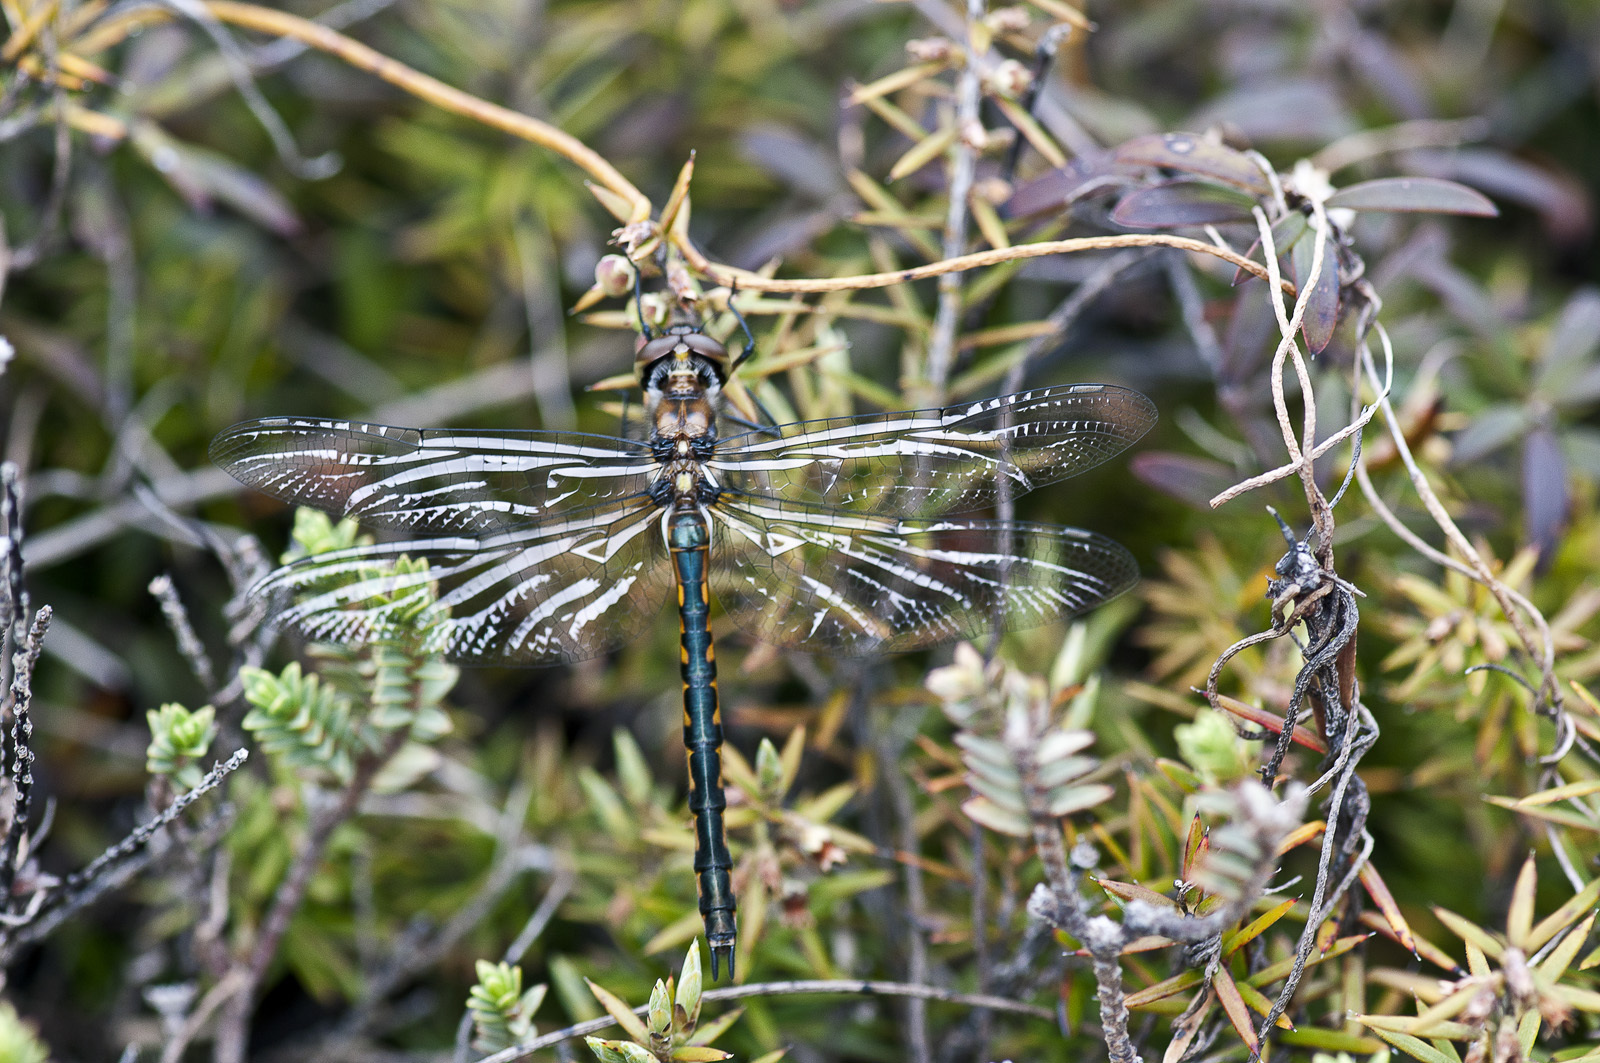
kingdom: Animalia
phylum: Arthropoda
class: Insecta
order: Odonata
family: Corduliidae
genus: Hemicordulia
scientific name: Hemicordulia australiae
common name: Sentry dragonfly
